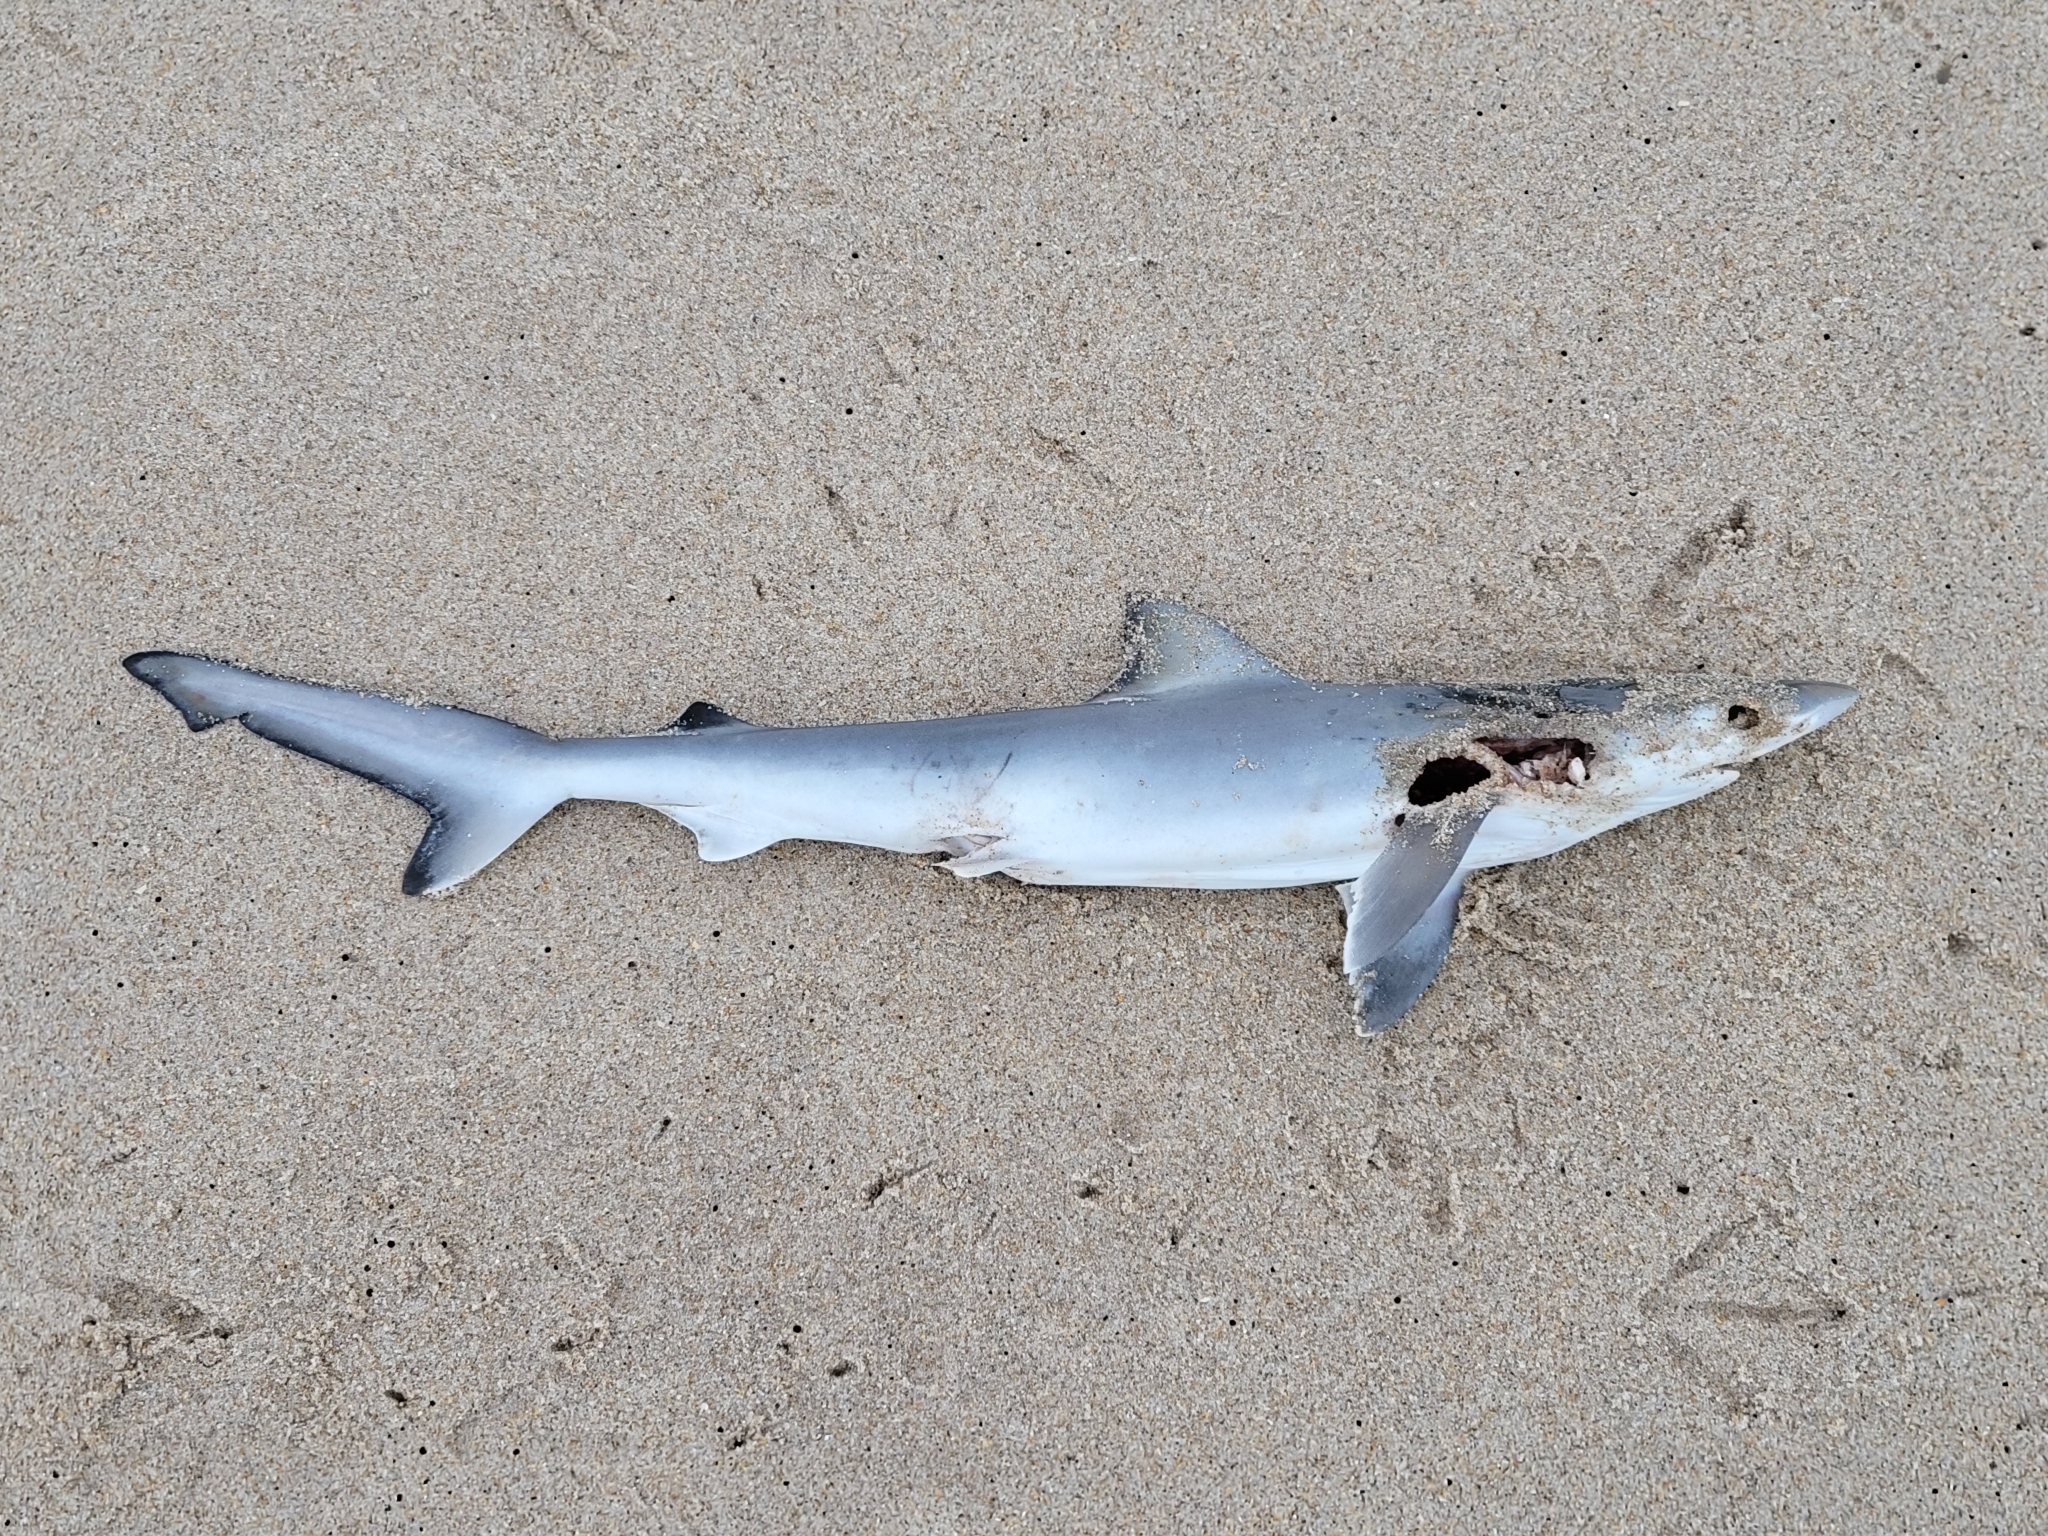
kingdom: Animalia
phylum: Chordata
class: Elasmobranchii
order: Carcharhiniformes
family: Carcharhinidae
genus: Rhizoprionodon
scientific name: Rhizoprionodon terraenovae
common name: Atlantic sharpnose shark
